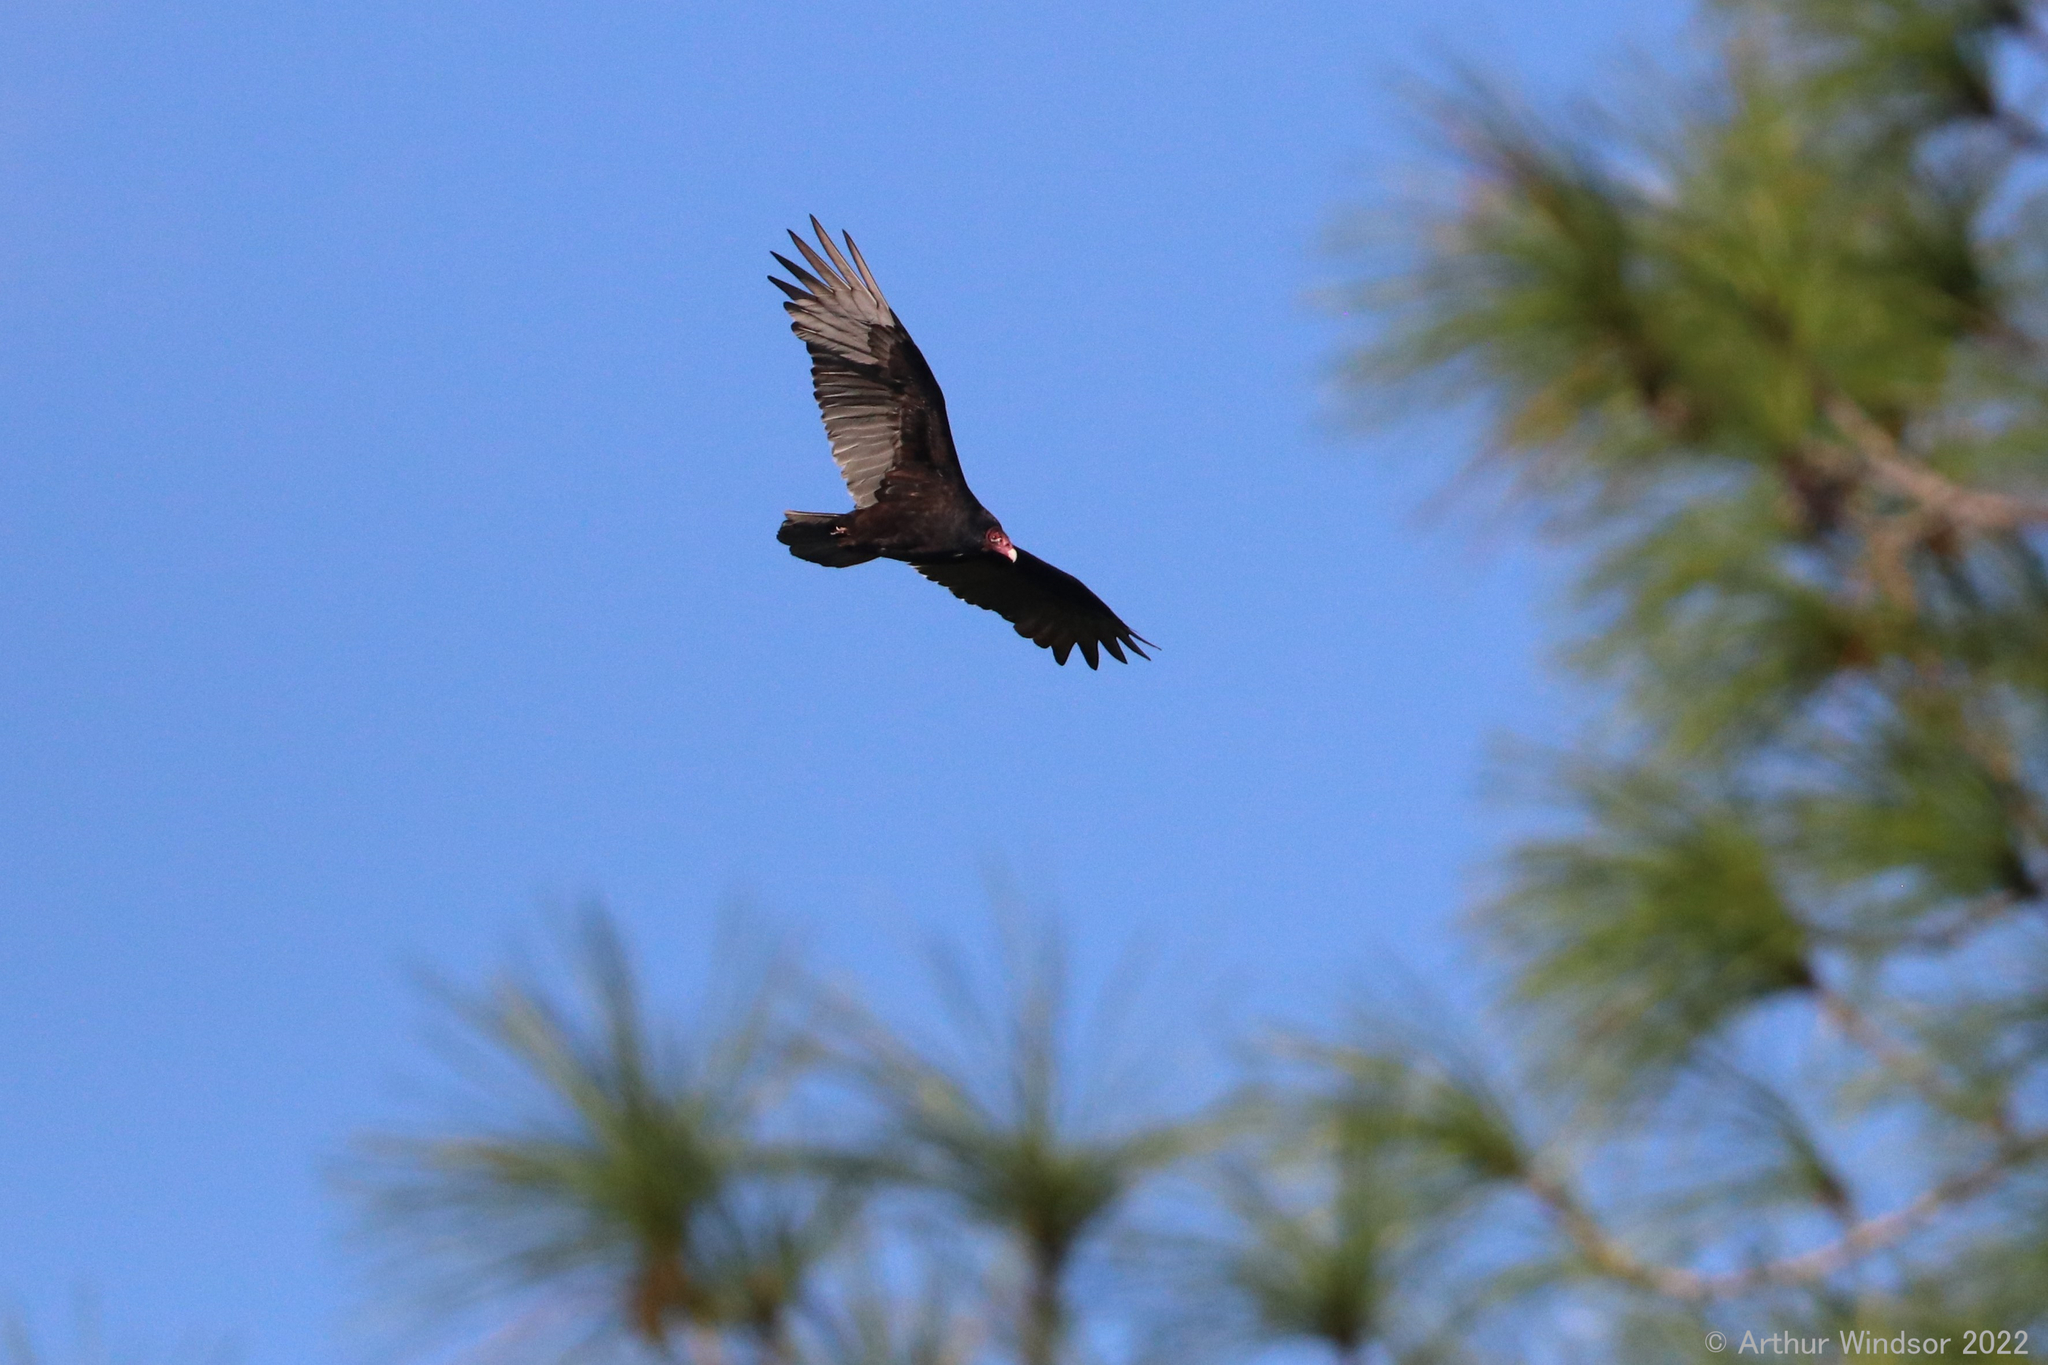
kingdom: Animalia
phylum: Chordata
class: Aves
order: Accipitriformes
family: Cathartidae
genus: Cathartes
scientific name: Cathartes aura
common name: Turkey vulture
